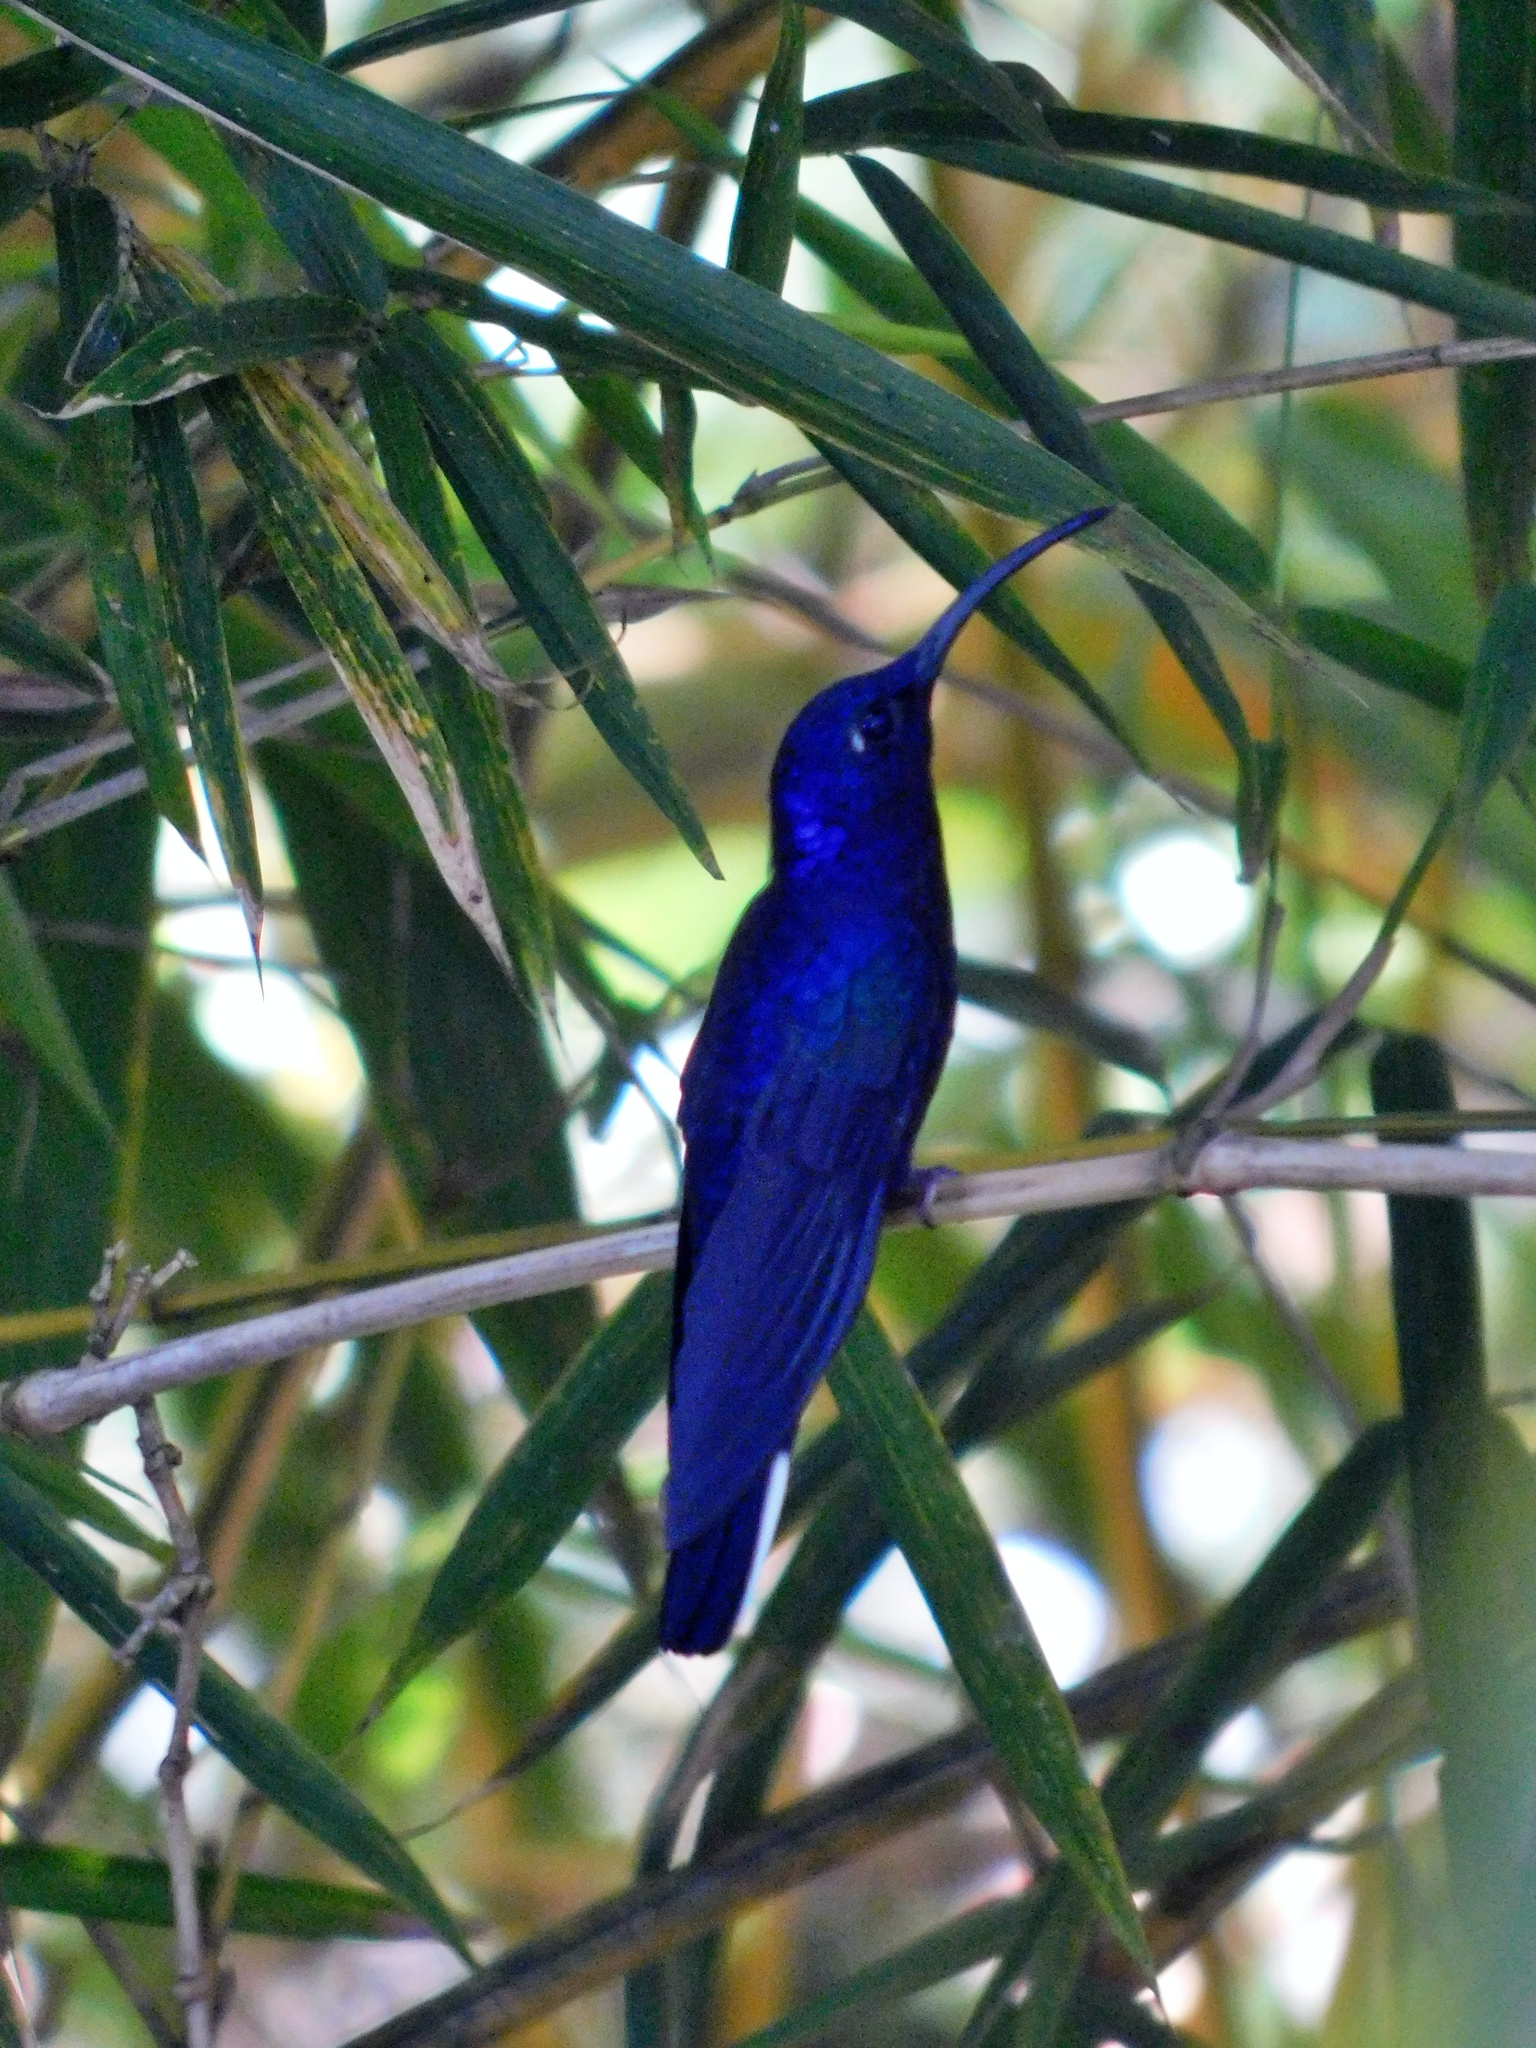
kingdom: Animalia
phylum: Chordata
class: Aves
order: Apodiformes
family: Trochilidae
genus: Campylopterus
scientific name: Campylopterus hemileucurus
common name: Violet sabrewing
